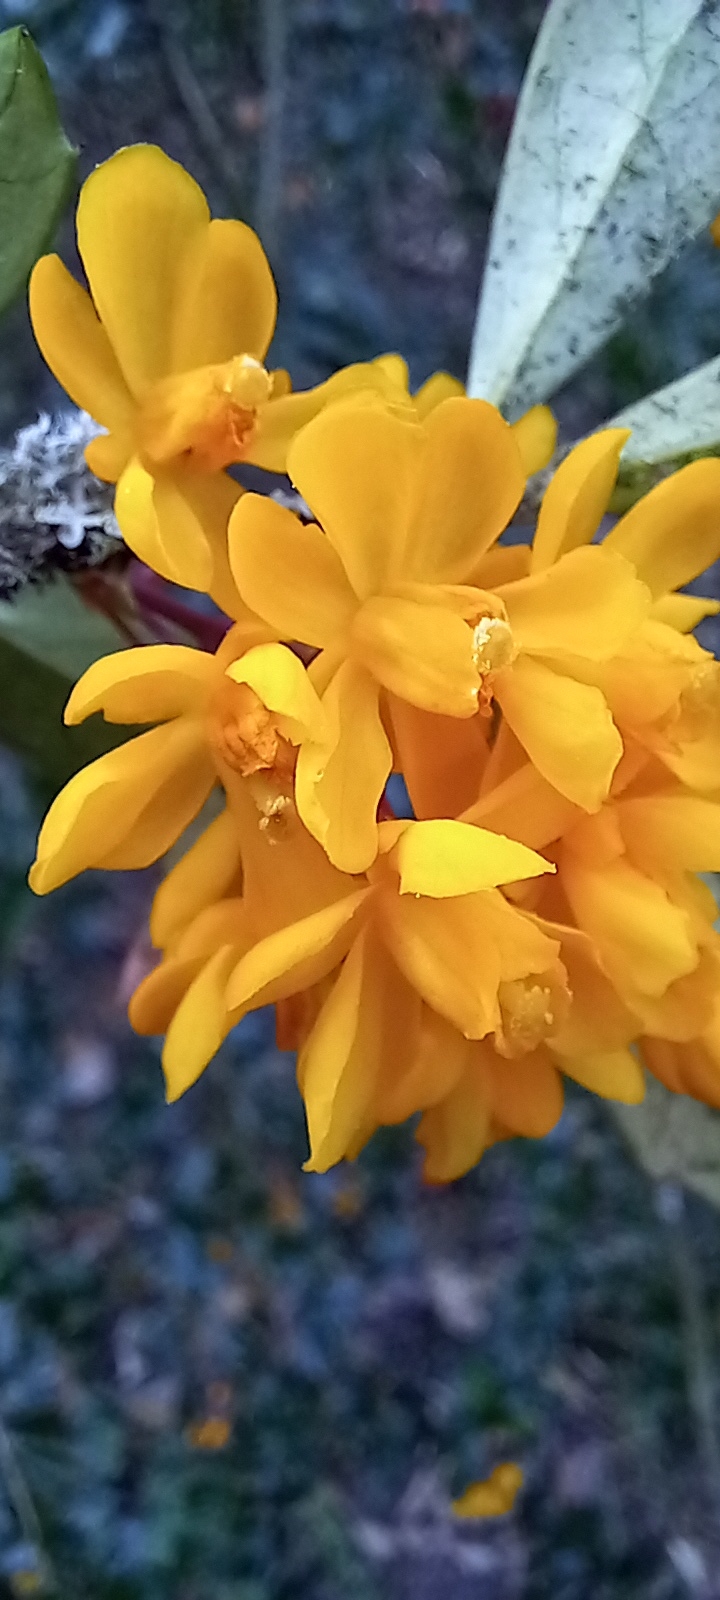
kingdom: Plantae
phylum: Tracheophyta
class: Magnoliopsida
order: Ranunculales
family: Berberidaceae
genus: Berberis
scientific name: Berberis darwinii
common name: Darwin's barberry
